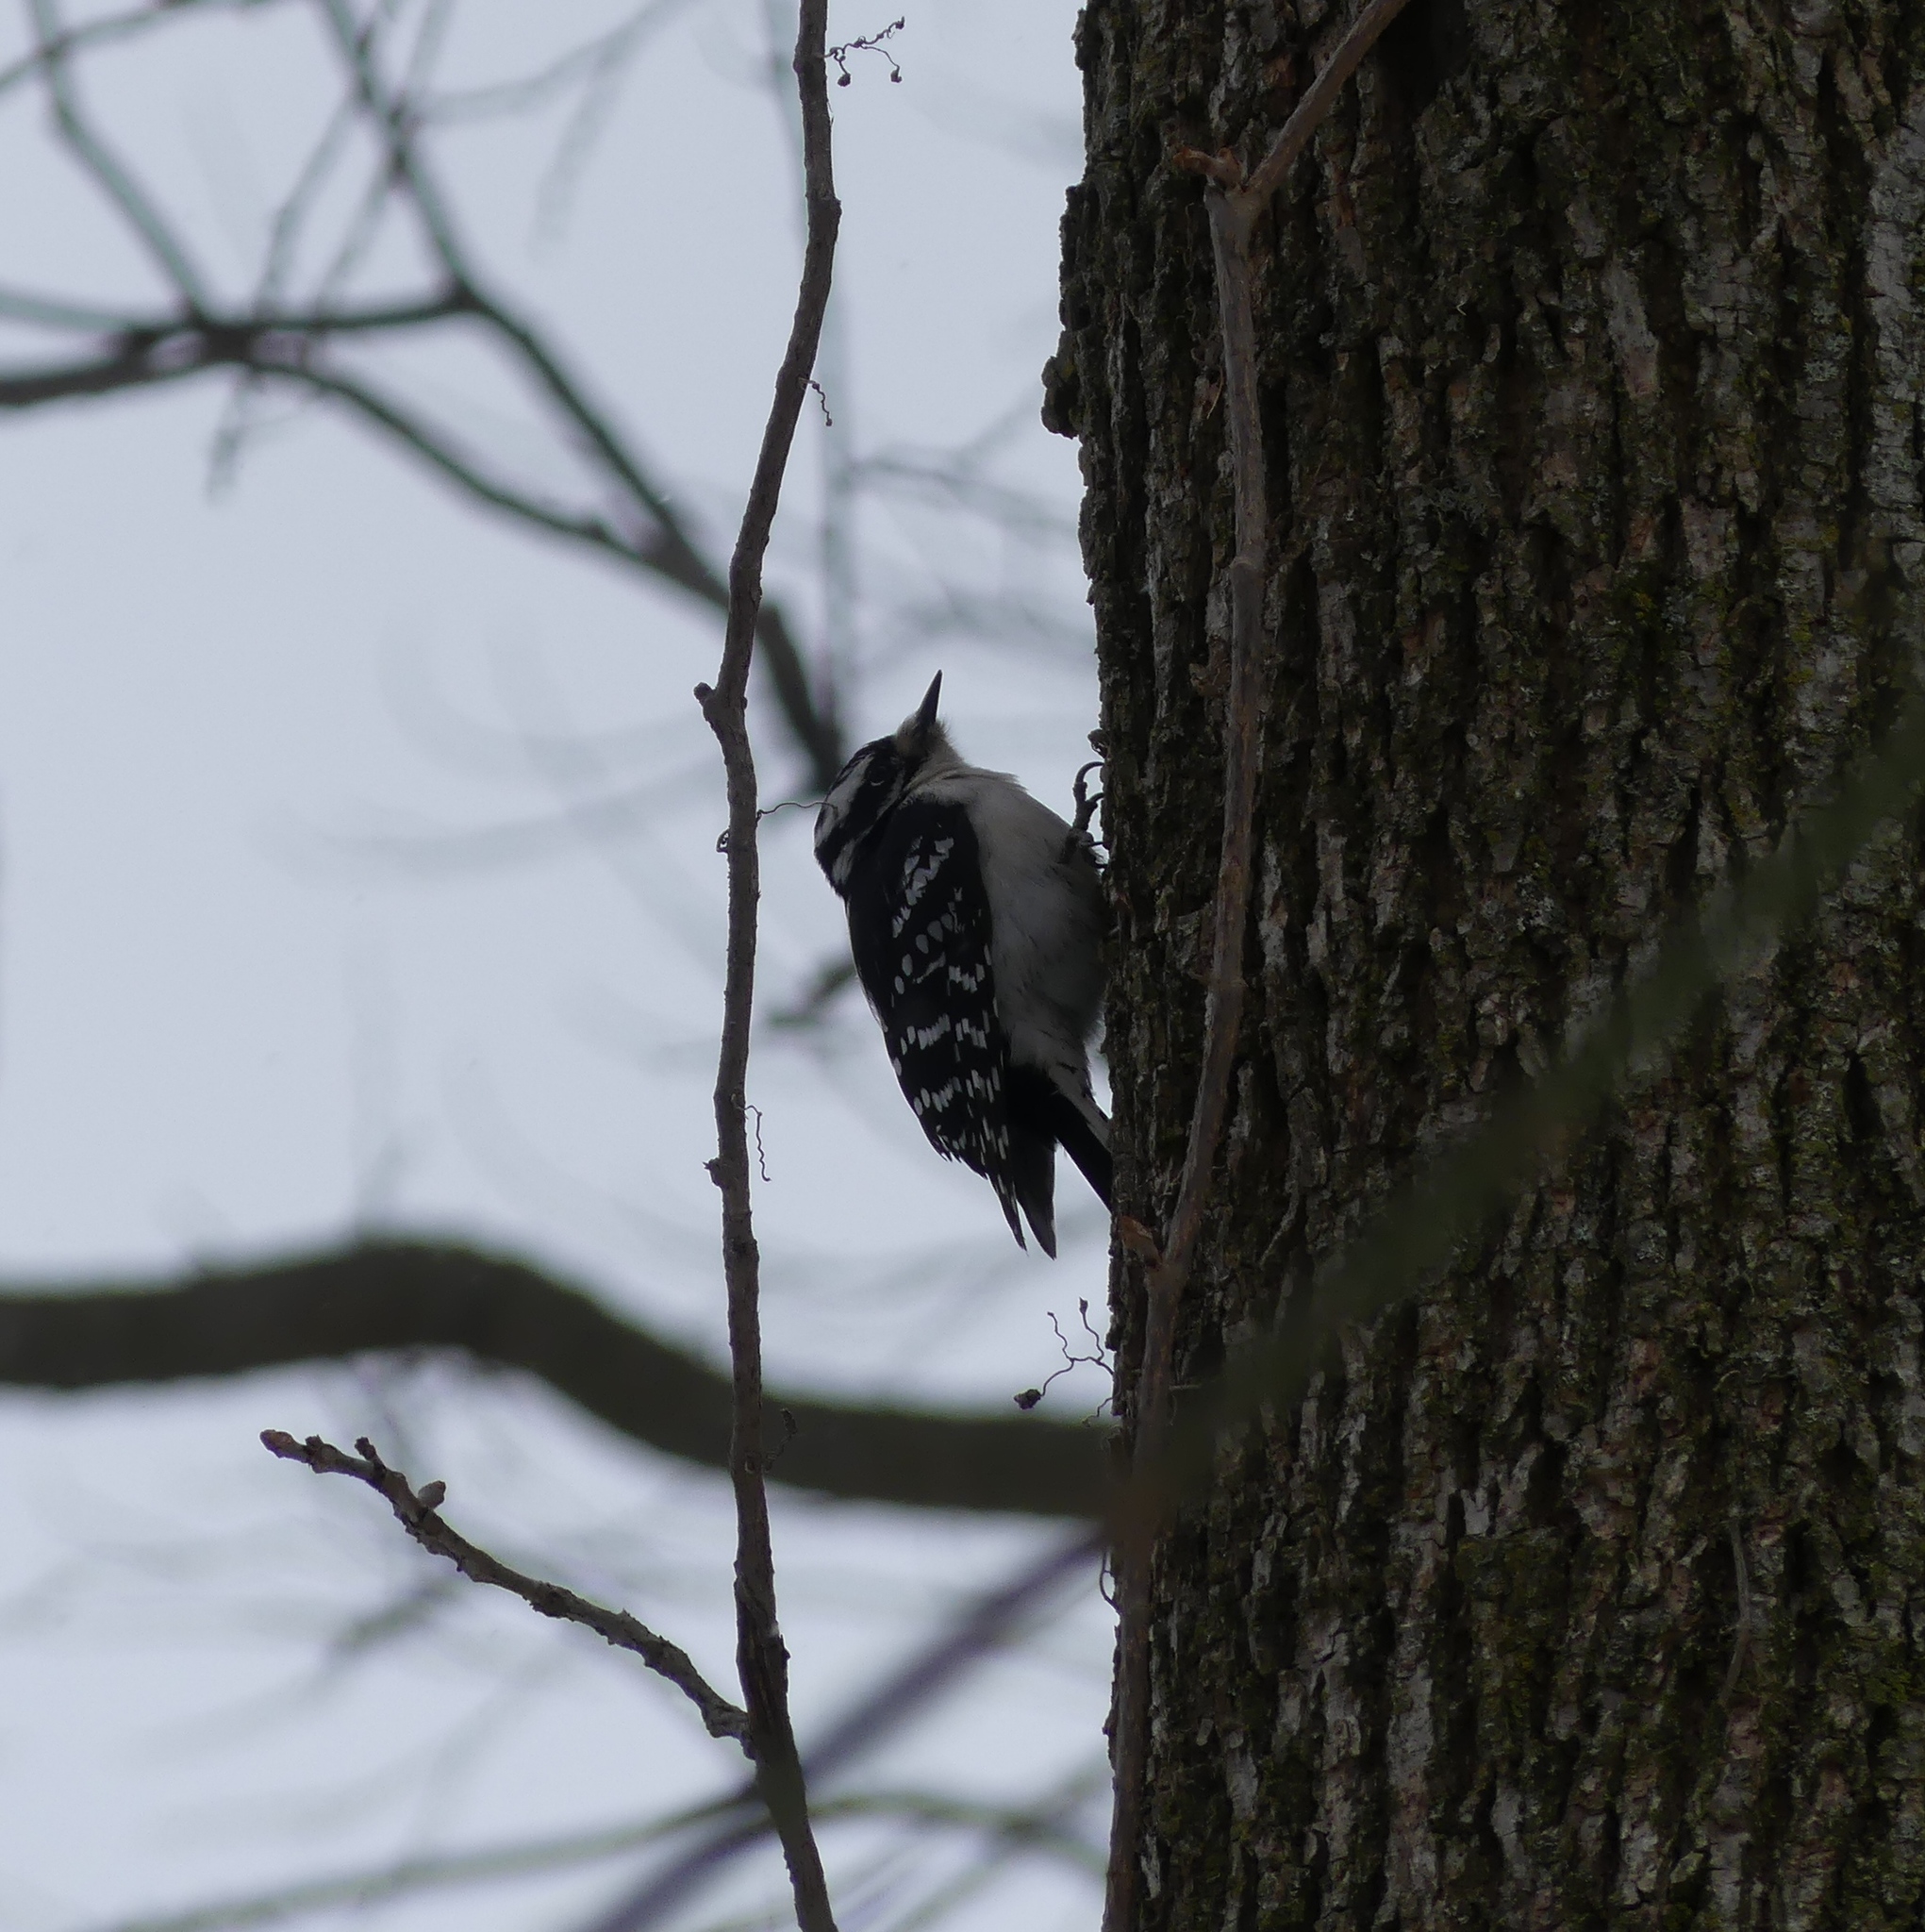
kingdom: Animalia
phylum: Chordata
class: Aves
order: Piciformes
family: Picidae
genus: Dryobates
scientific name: Dryobates pubescens
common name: Downy woodpecker
